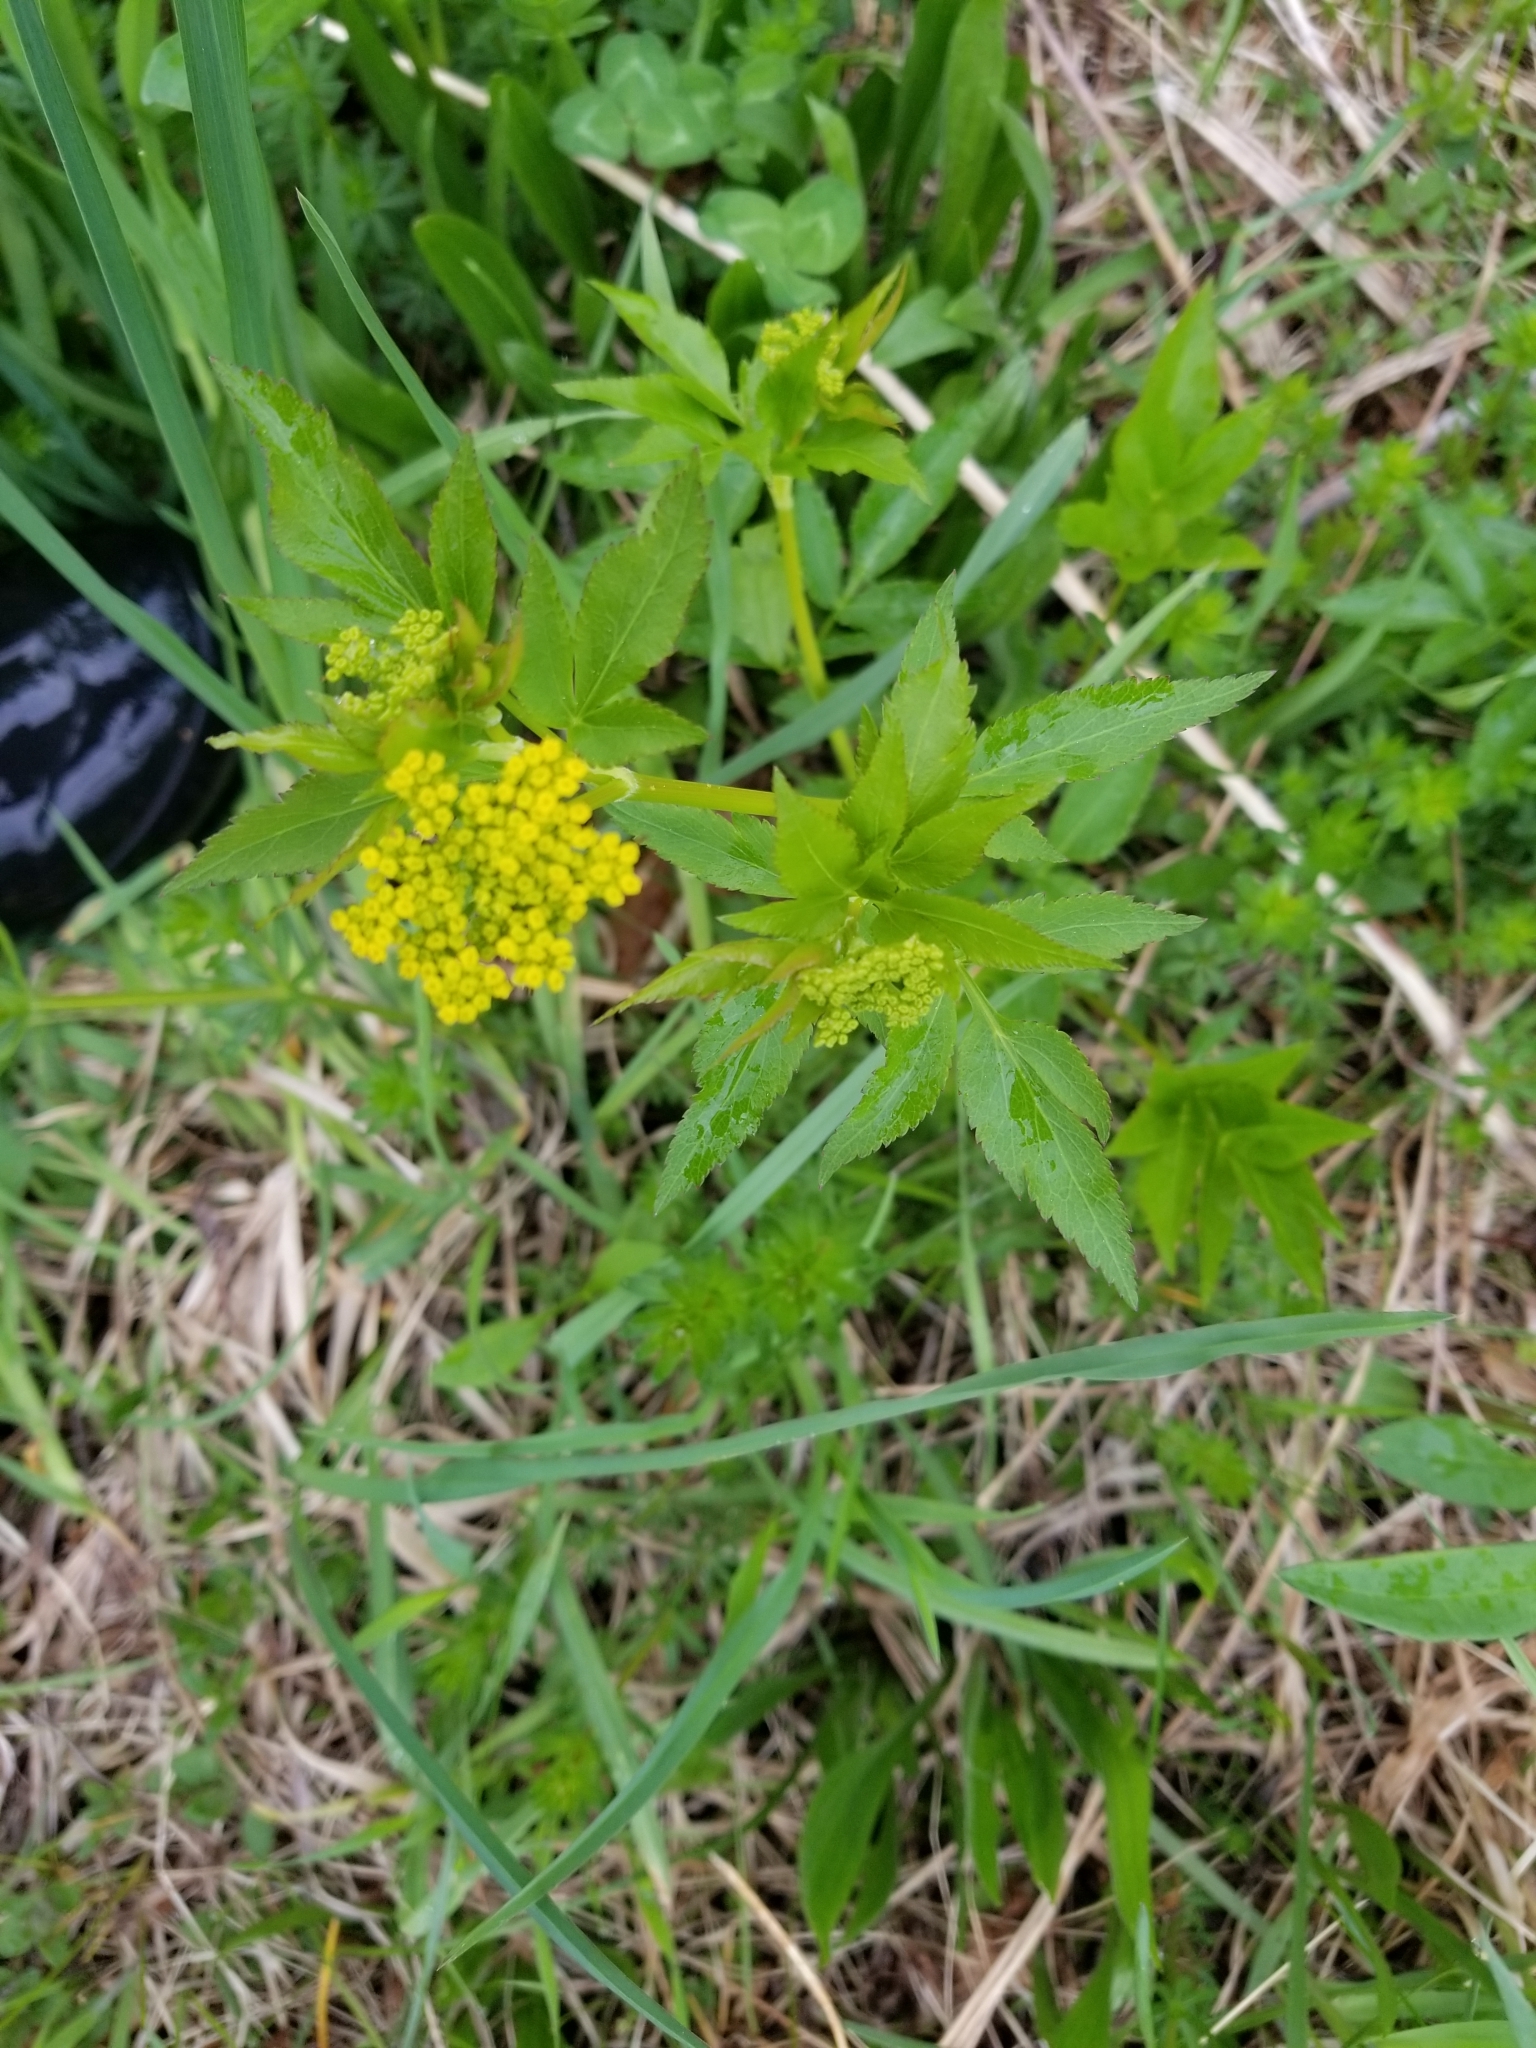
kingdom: Plantae
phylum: Tracheophyta
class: Magnoliopsida
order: Apiales
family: Apiaceae
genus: Zizia
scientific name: Zizia aurea
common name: Golden alexanders
